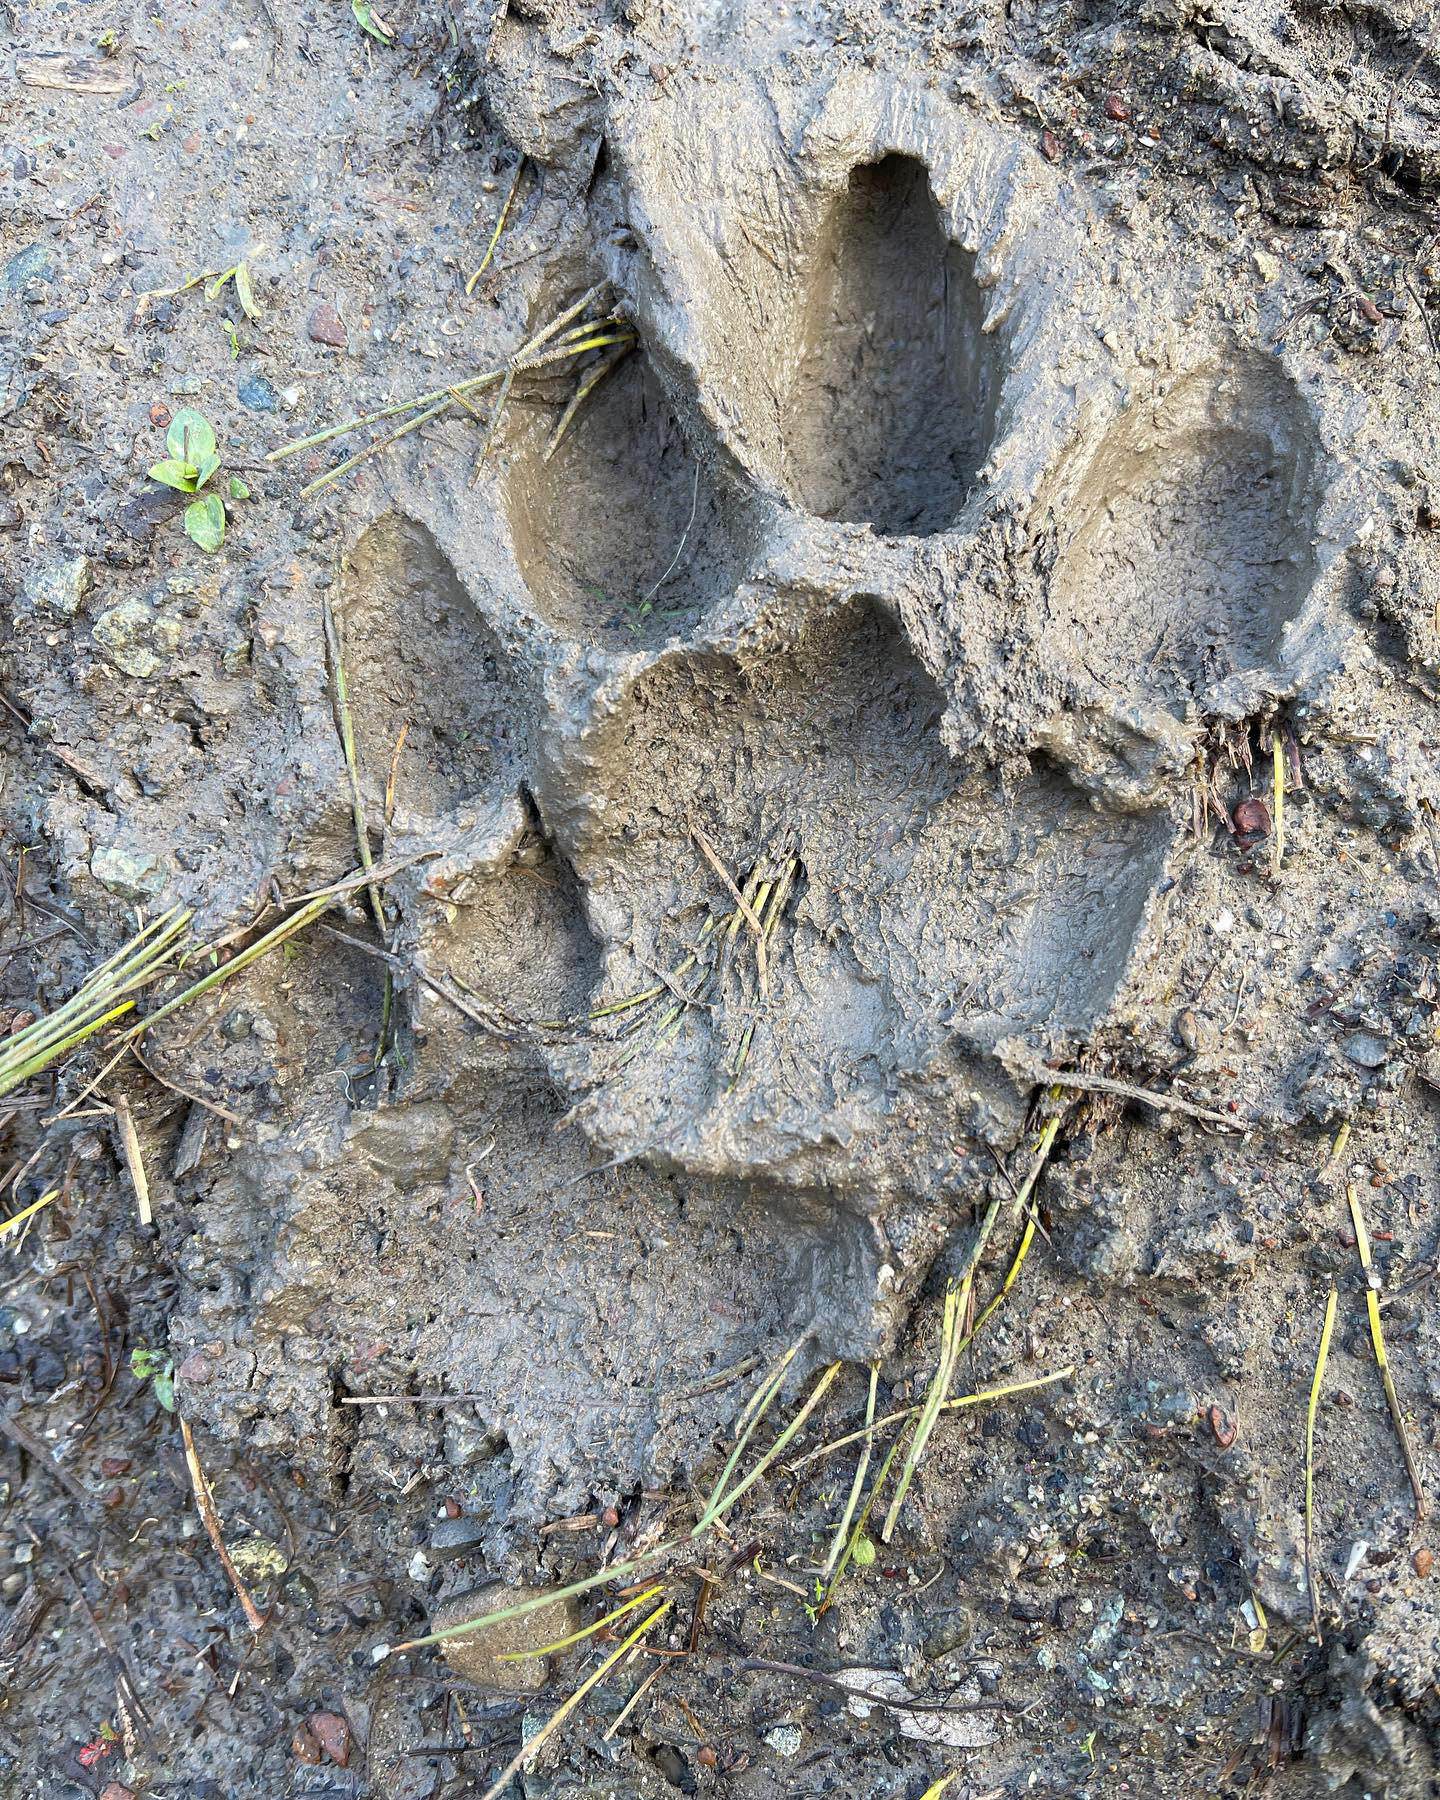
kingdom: Animalia
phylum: Chordata
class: Mammalia
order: Carnivora
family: Felidae
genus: Puma
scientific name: Puma concolor
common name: Puma
